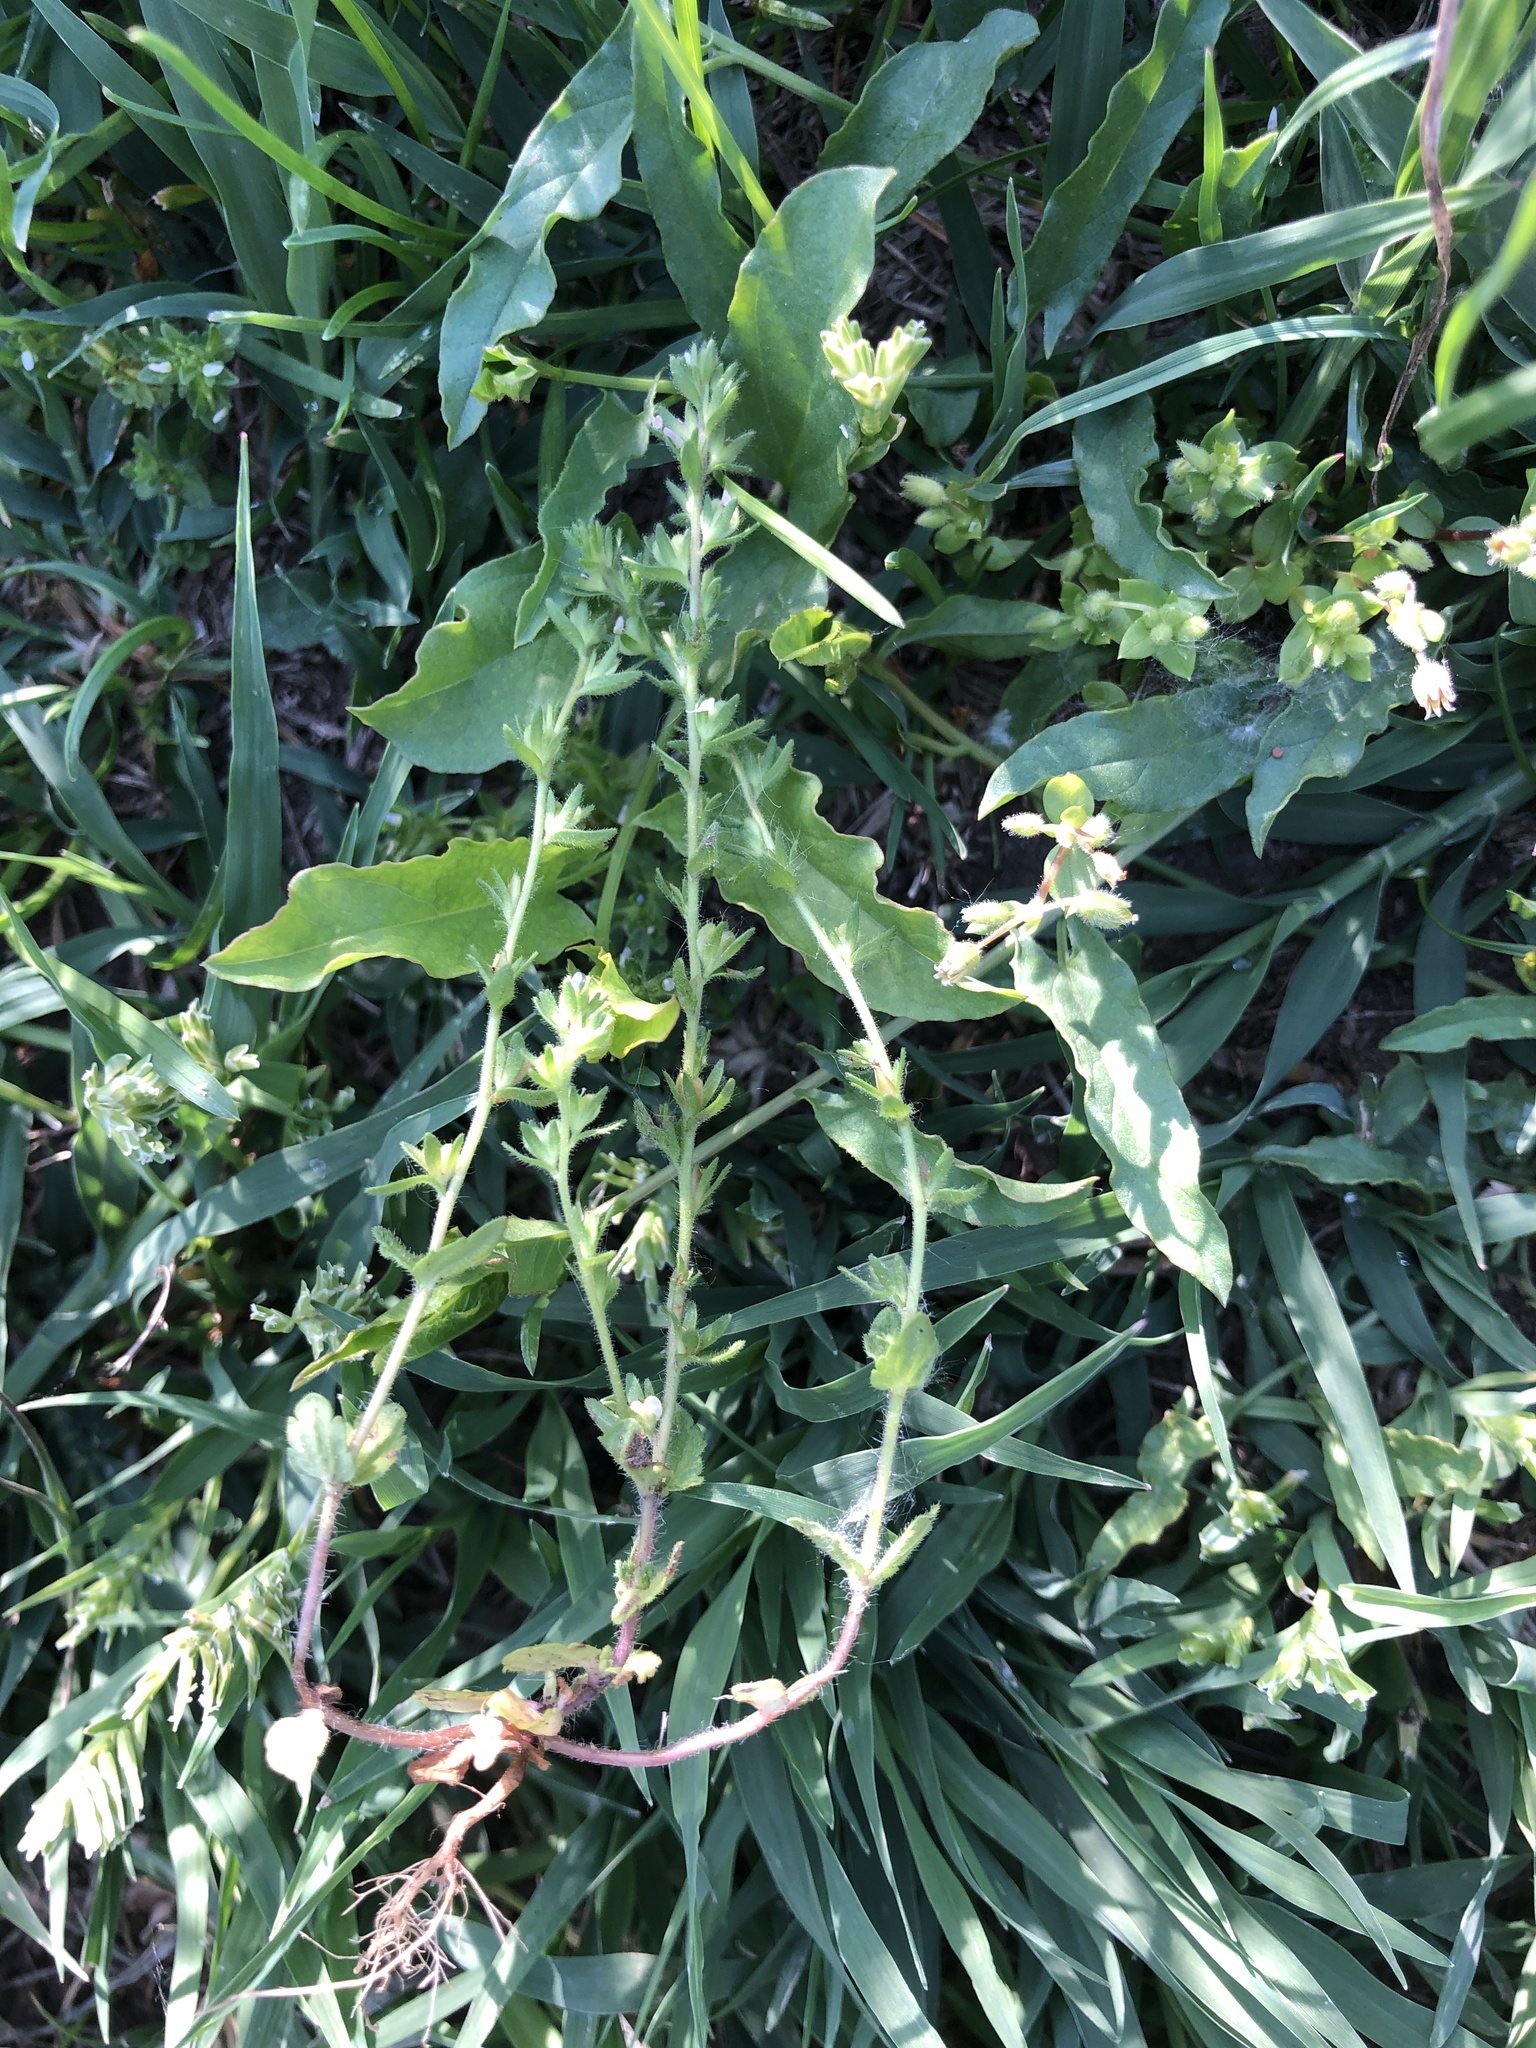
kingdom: Plantae
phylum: Tracheophyta
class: Magnoliopsida
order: Lamiales
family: Plantaginaceae
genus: Veronica
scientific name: Veronica arvensis
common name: Corn speedwell
